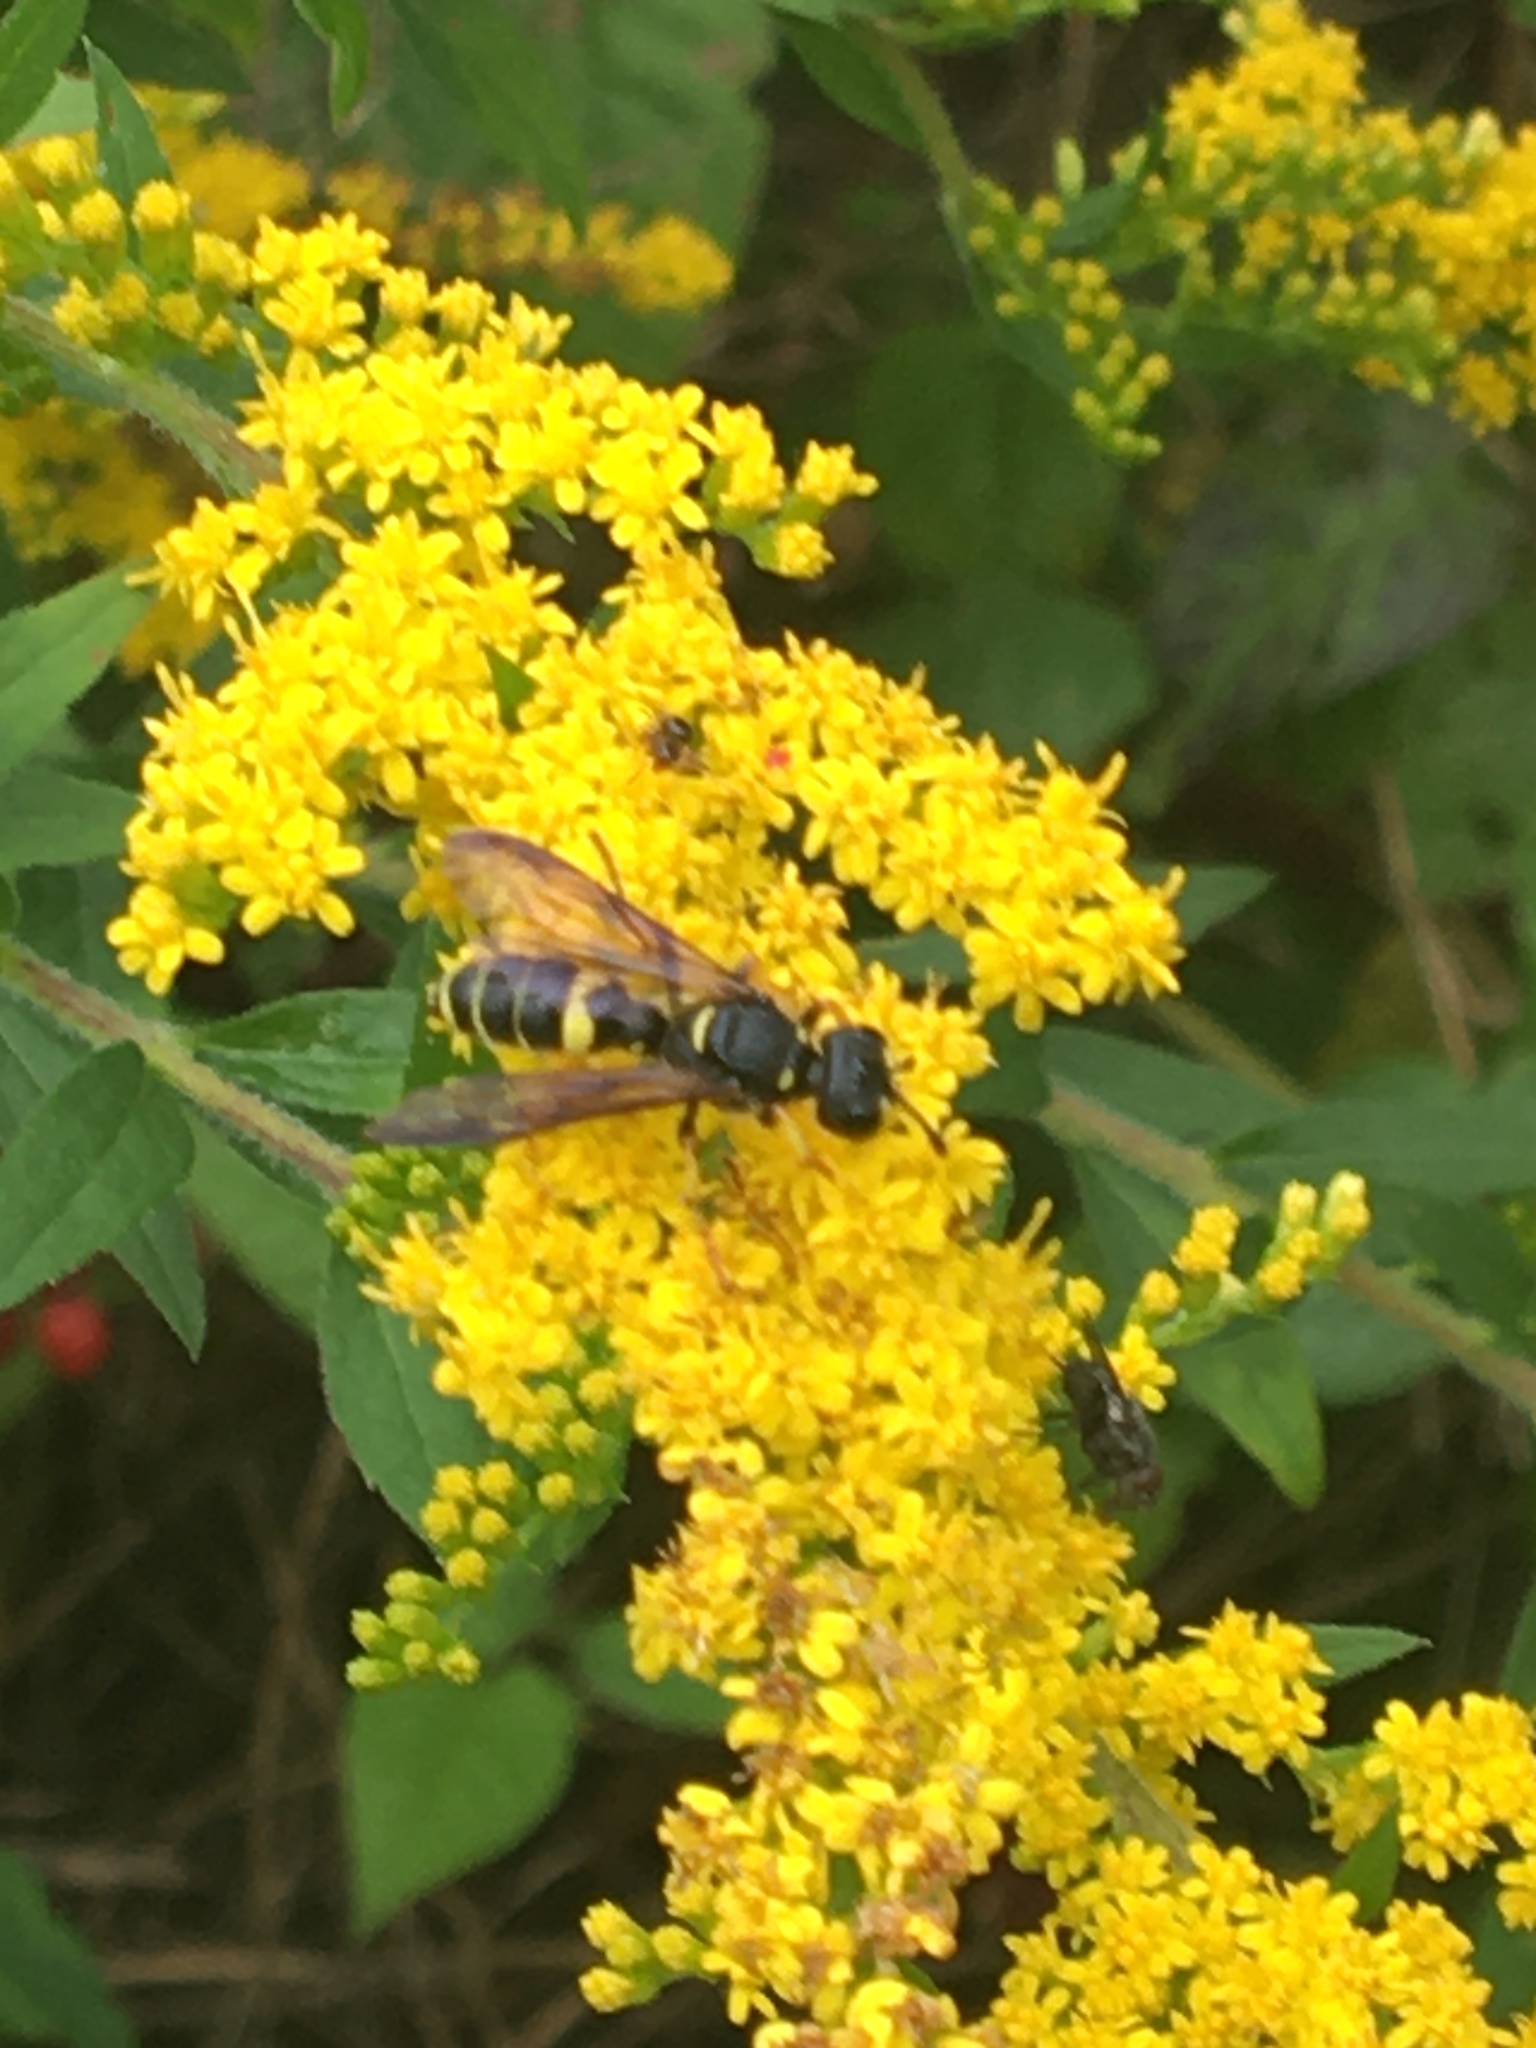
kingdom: Animalia
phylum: Arthropoda
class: Insecta
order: Hymenoptera
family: Crabronidae
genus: Cerceris
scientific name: Cerceris halone
